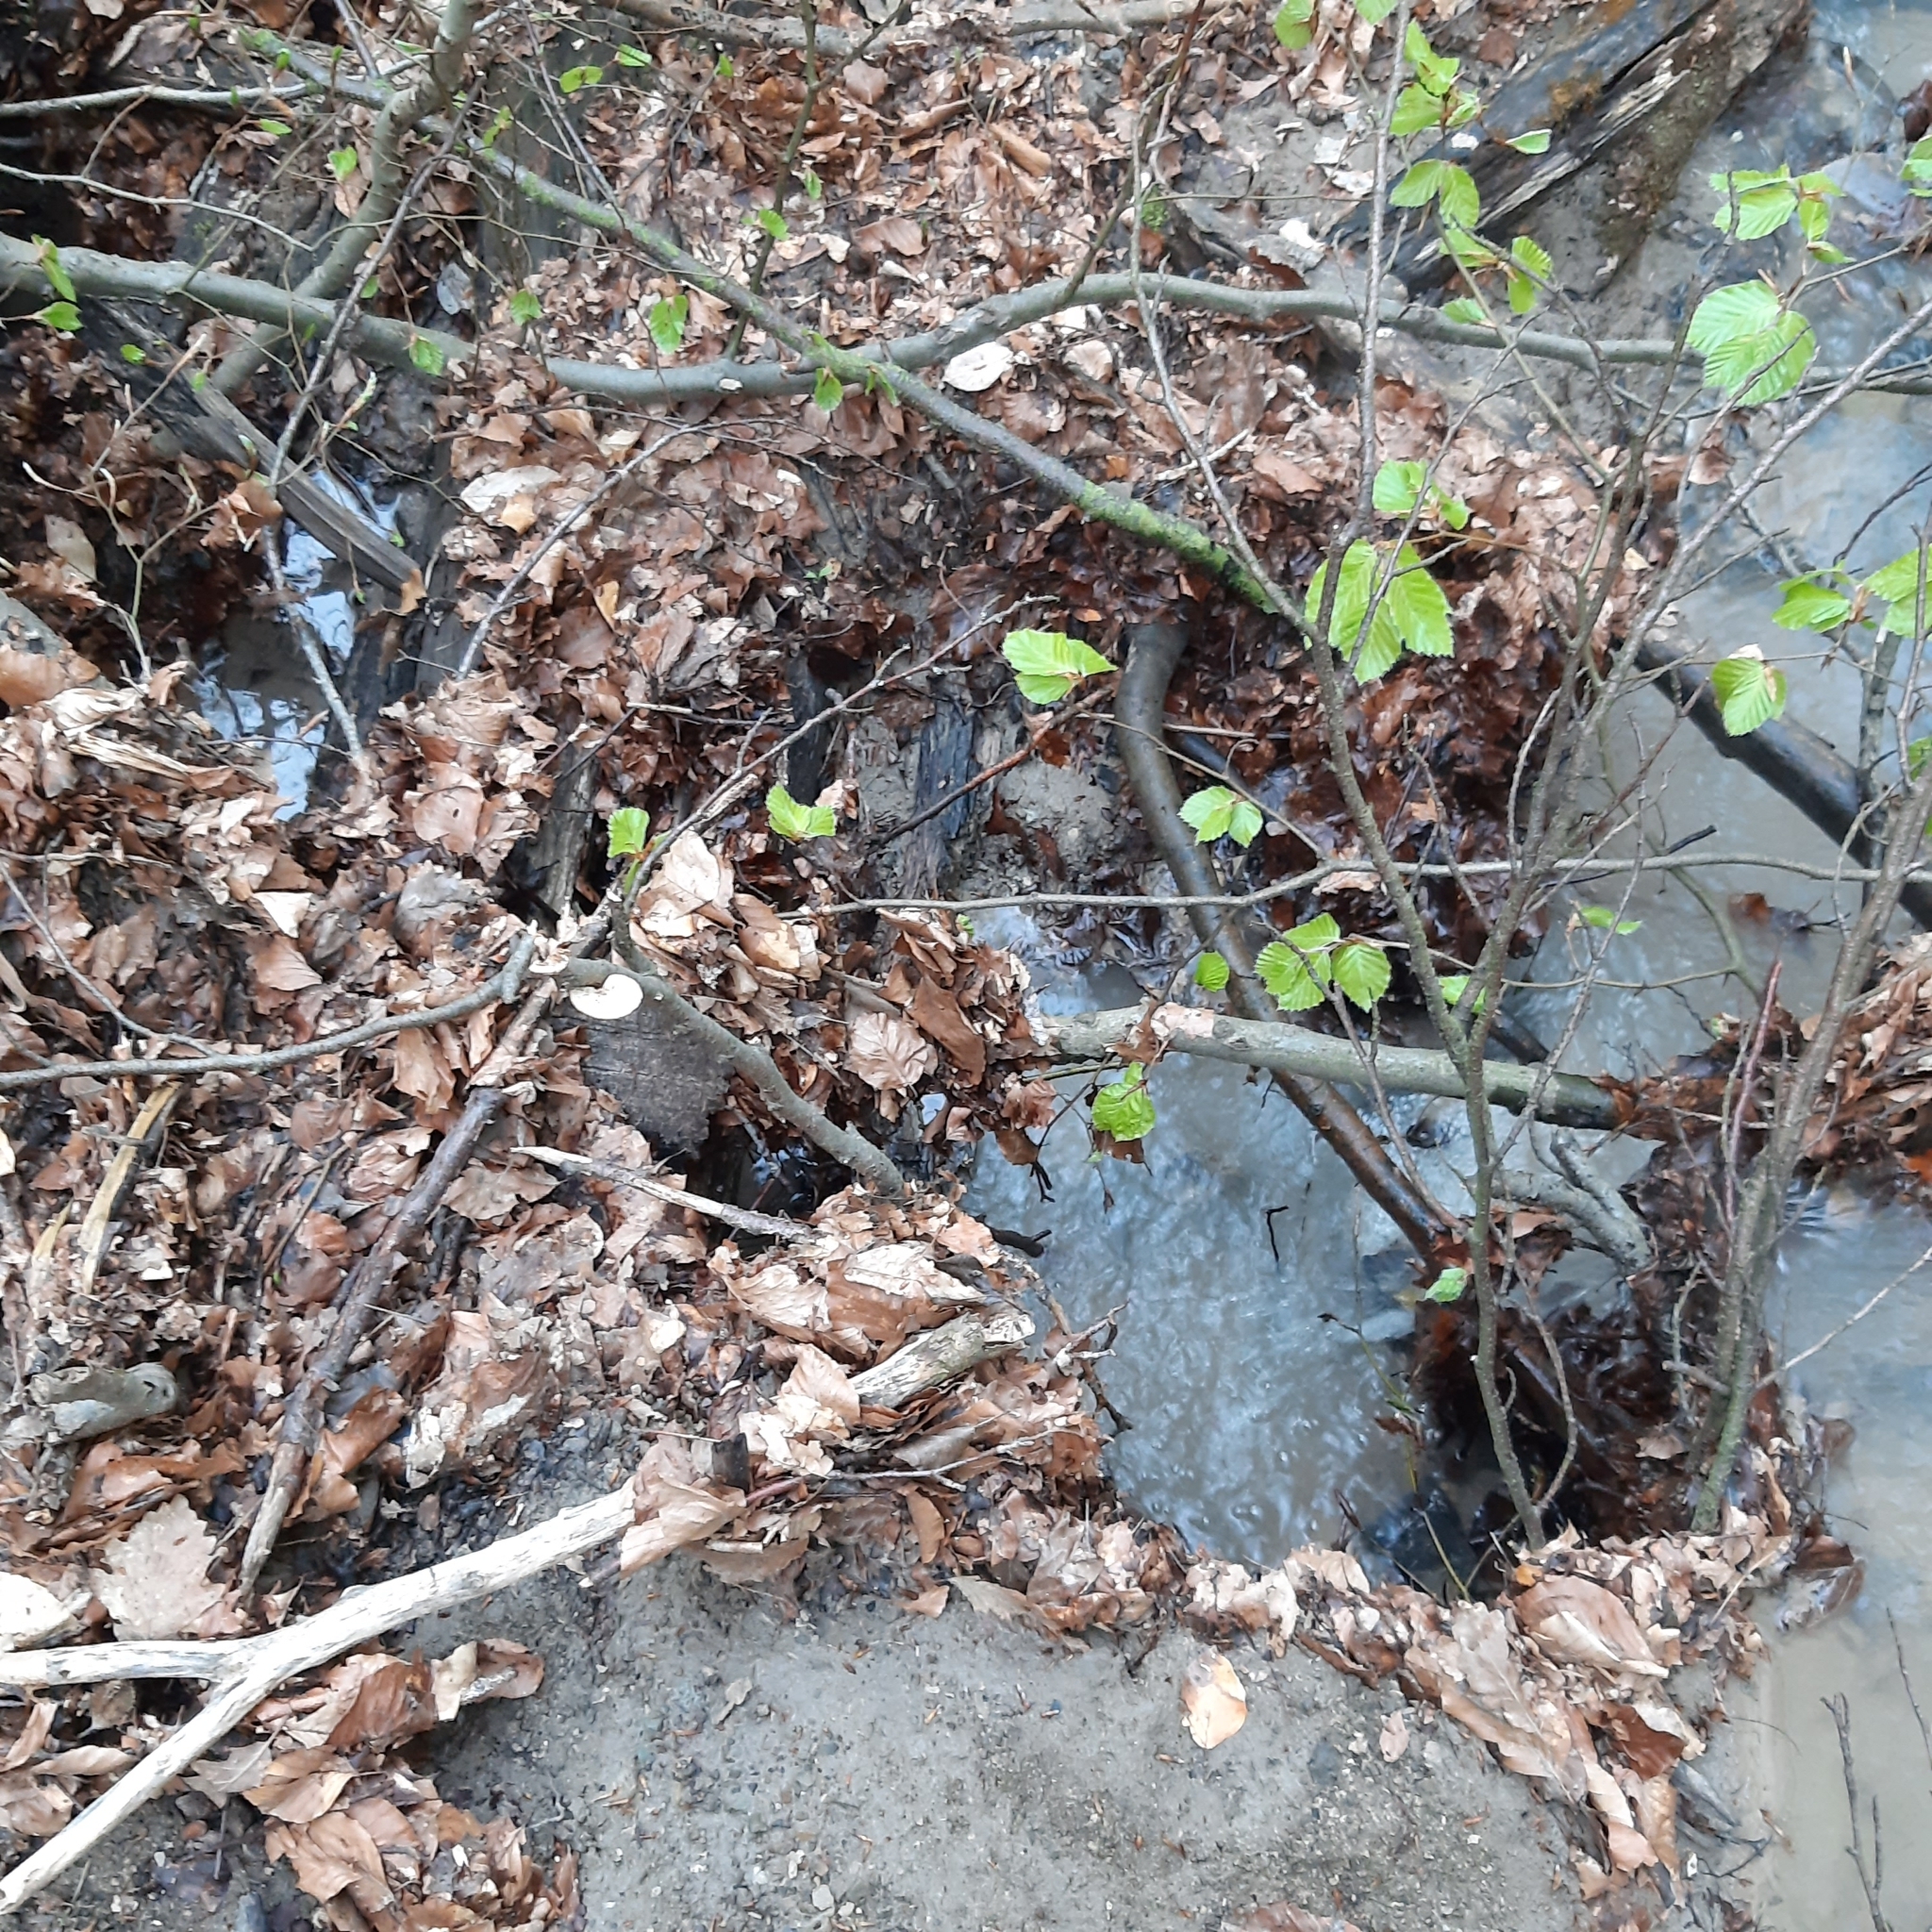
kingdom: Fungi
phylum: Basidiomycota
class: Agaricomycetes
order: Polyporales
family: Polyporaceae
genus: Neofavolus
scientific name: Neofavolus alveolaris
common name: Hexagonal-pored polypore
